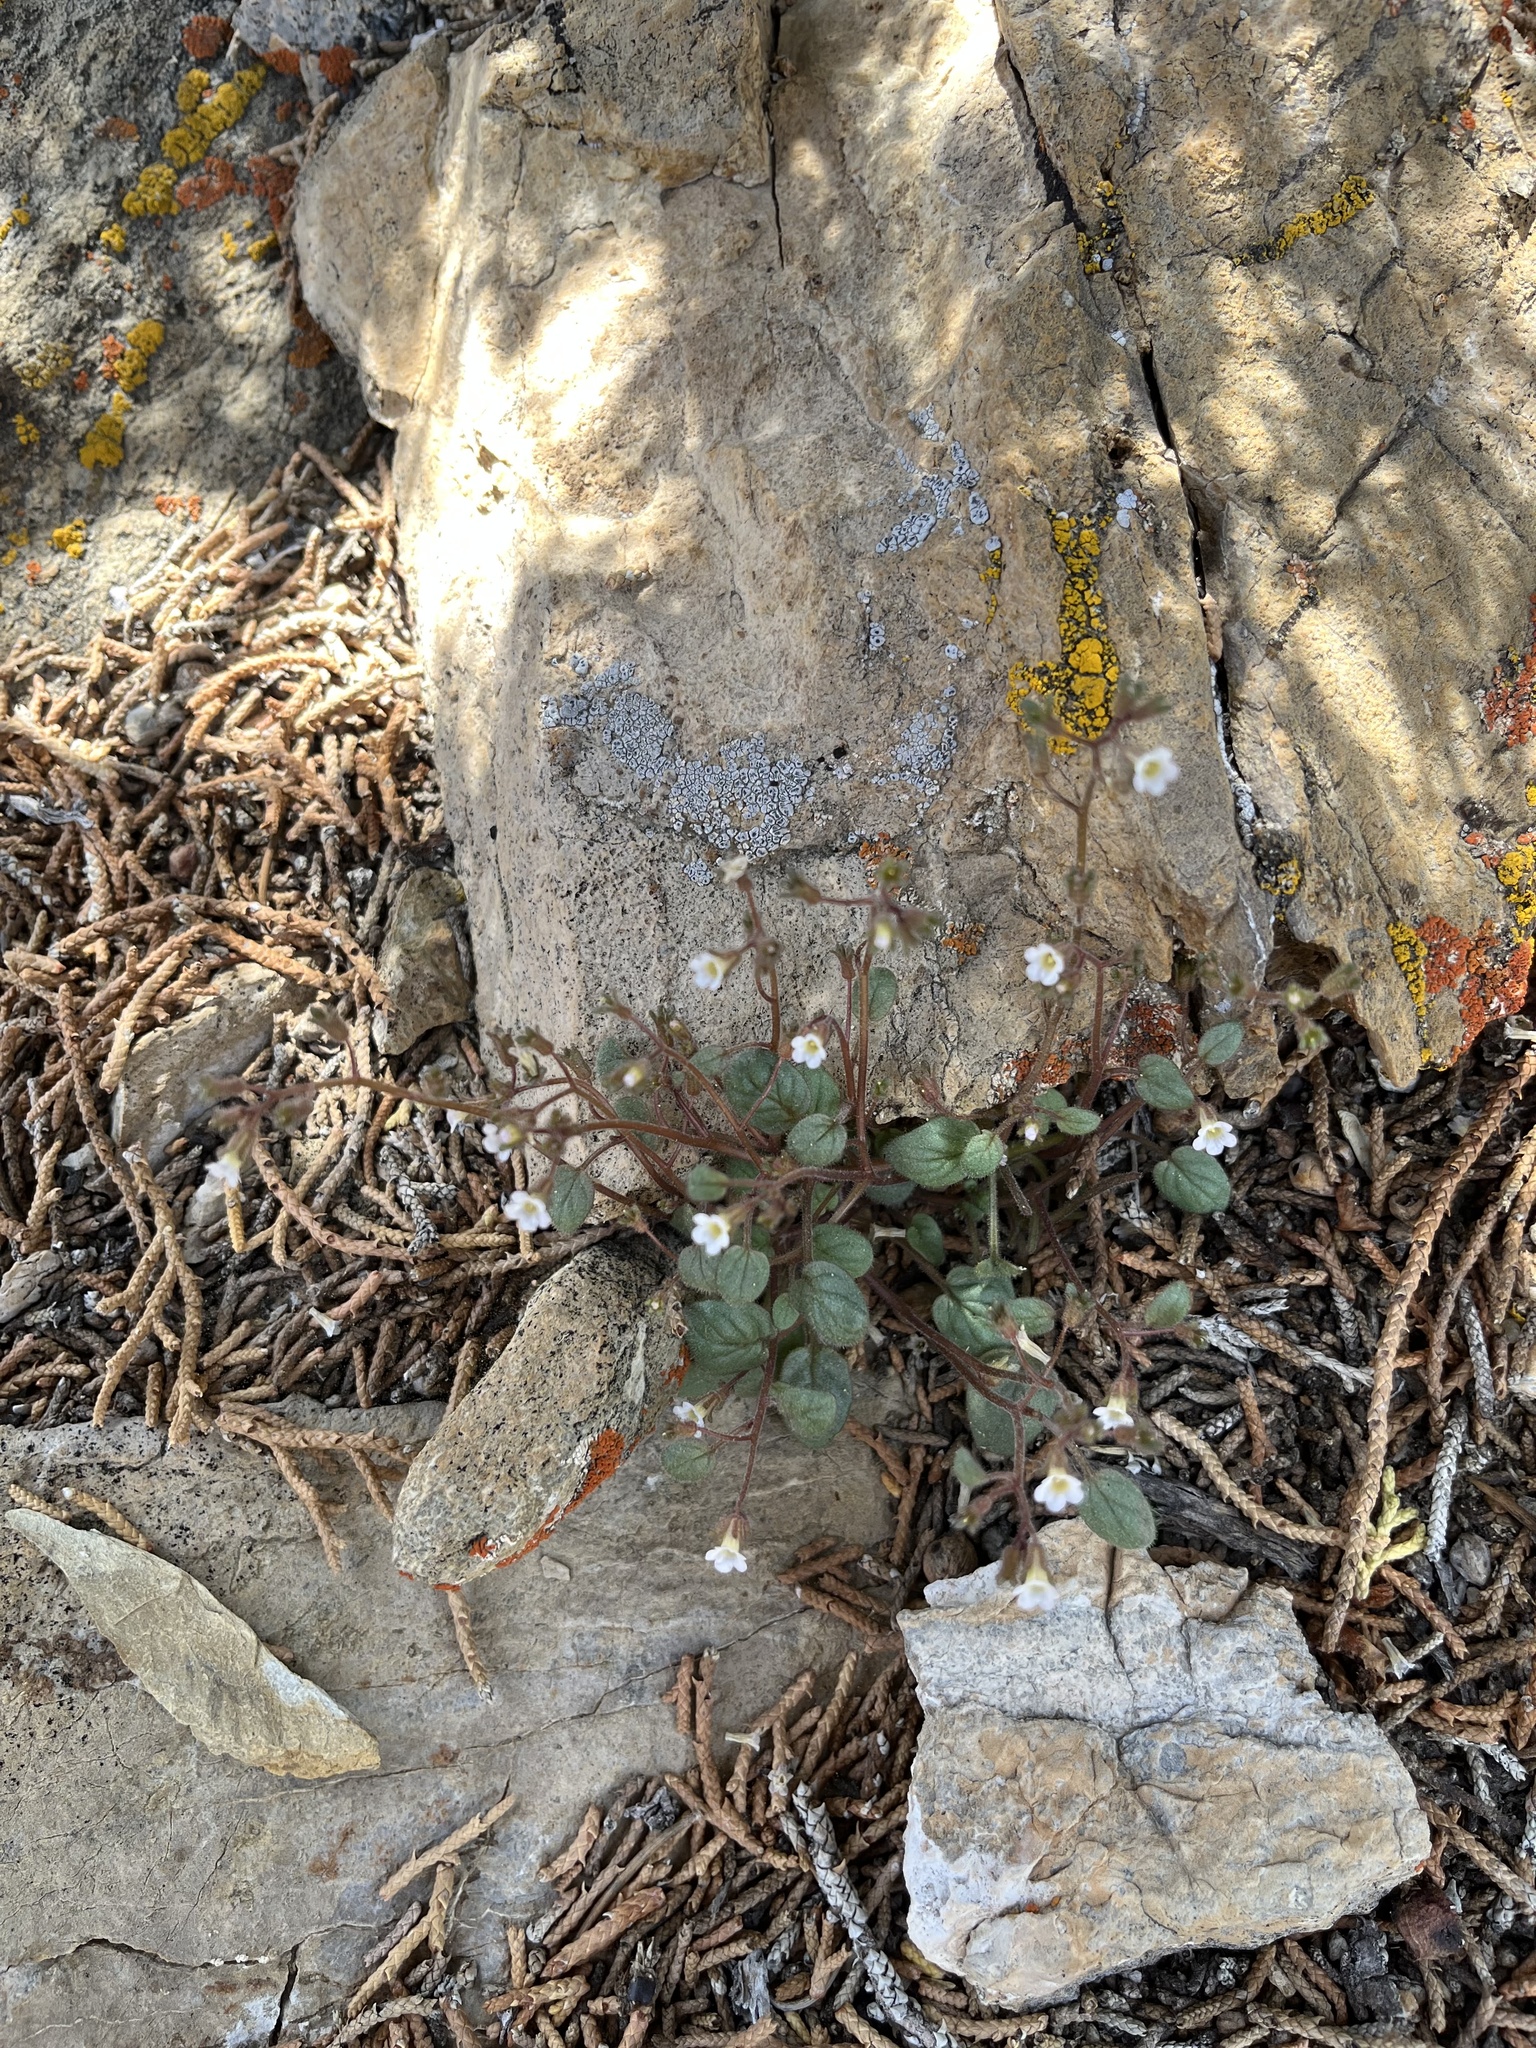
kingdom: Plantae
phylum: Tracheophyta
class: Magnoliopsida
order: Boraginales
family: Hydrophyllaceae
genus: Phacelia
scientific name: Phacelia barnebyana
